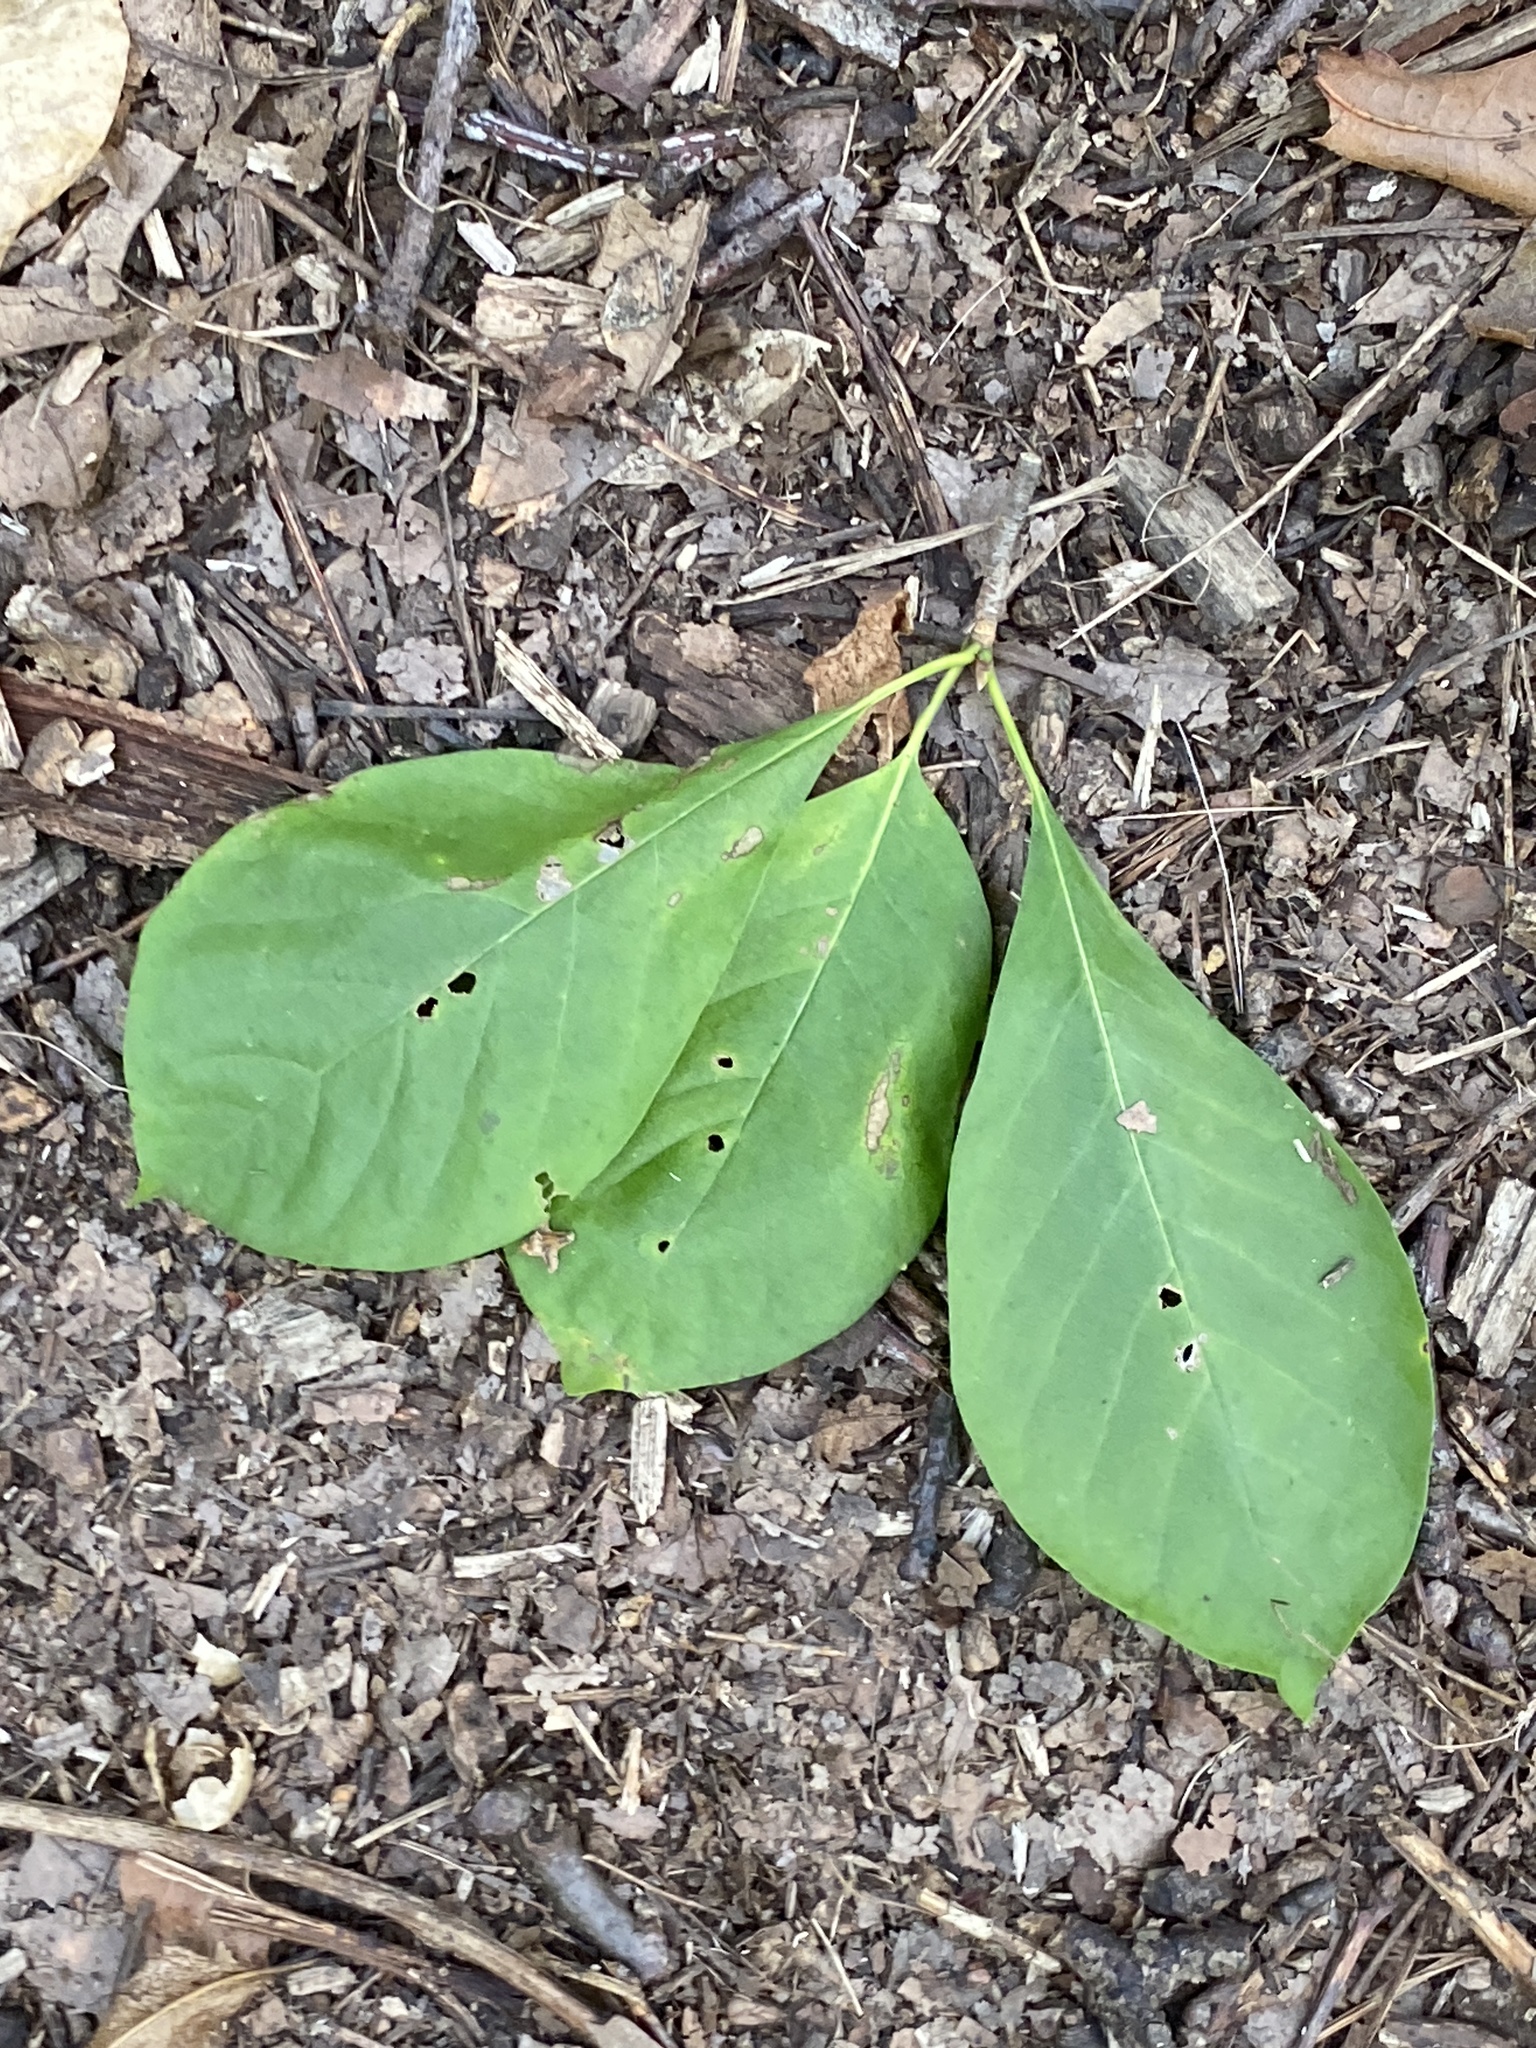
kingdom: Plantae
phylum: Tracheophyta
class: Magnoliopsida
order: Cornales
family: Nyssaceae
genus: Nyssa
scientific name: Nyssa sylvatica
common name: Black tupelo
